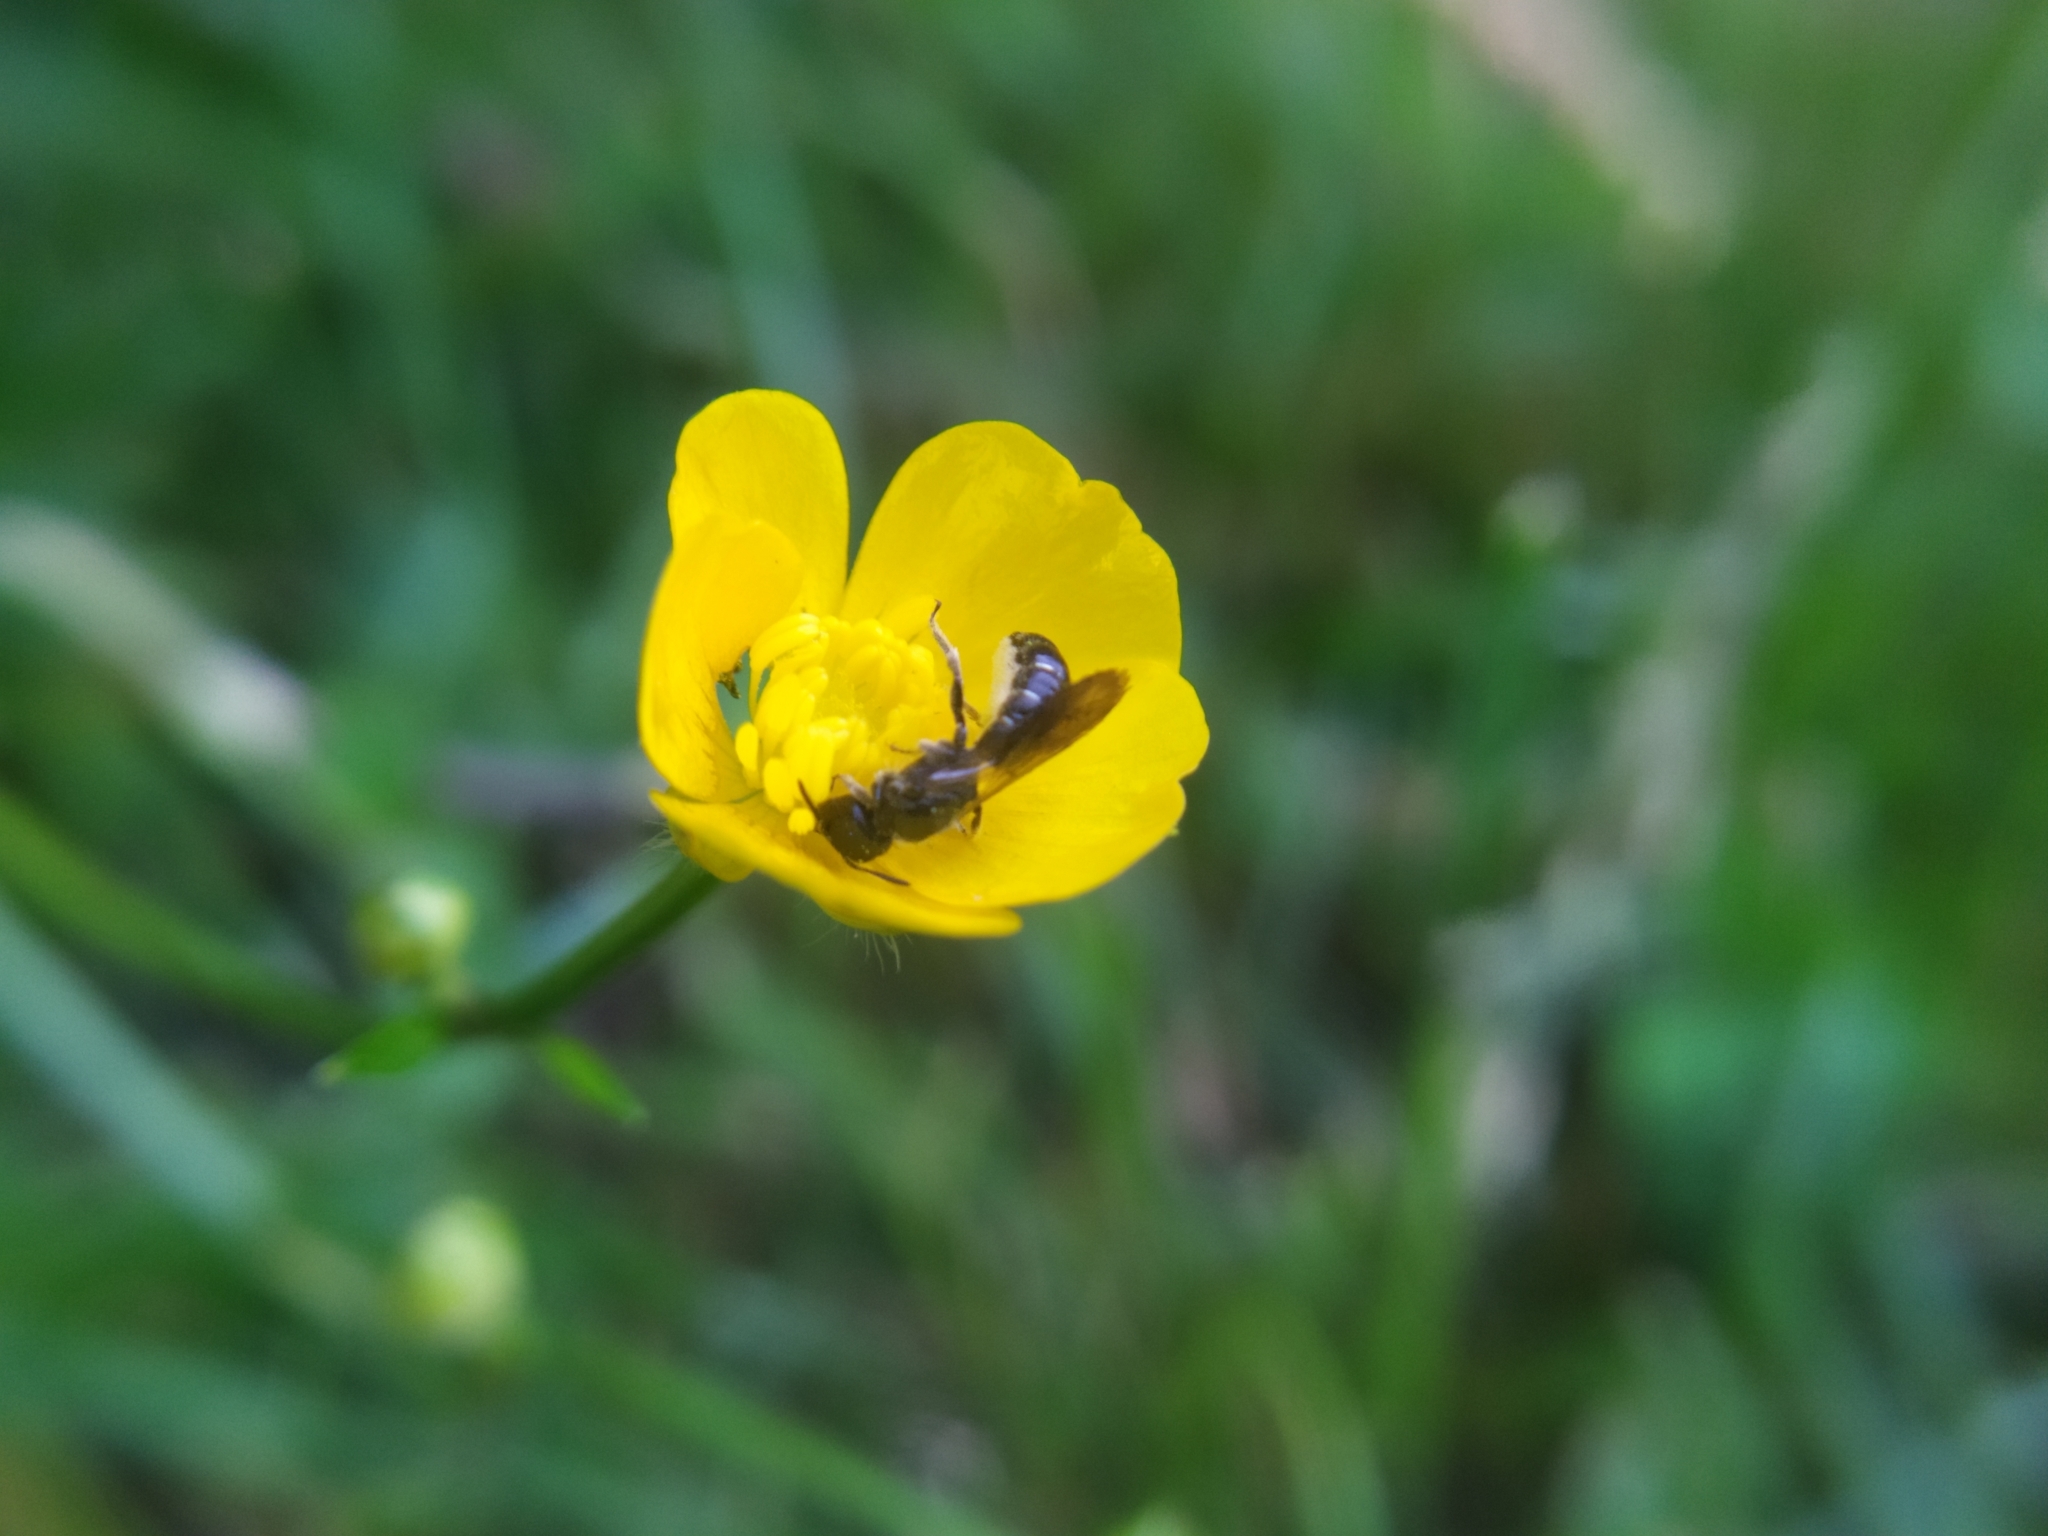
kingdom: Animalia
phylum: Arthropoda
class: Insecta
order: Hymenoptera
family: Megachilidae
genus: Chelostoma
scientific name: Chelostoma florisomne
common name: Sleepy carpenter bee
